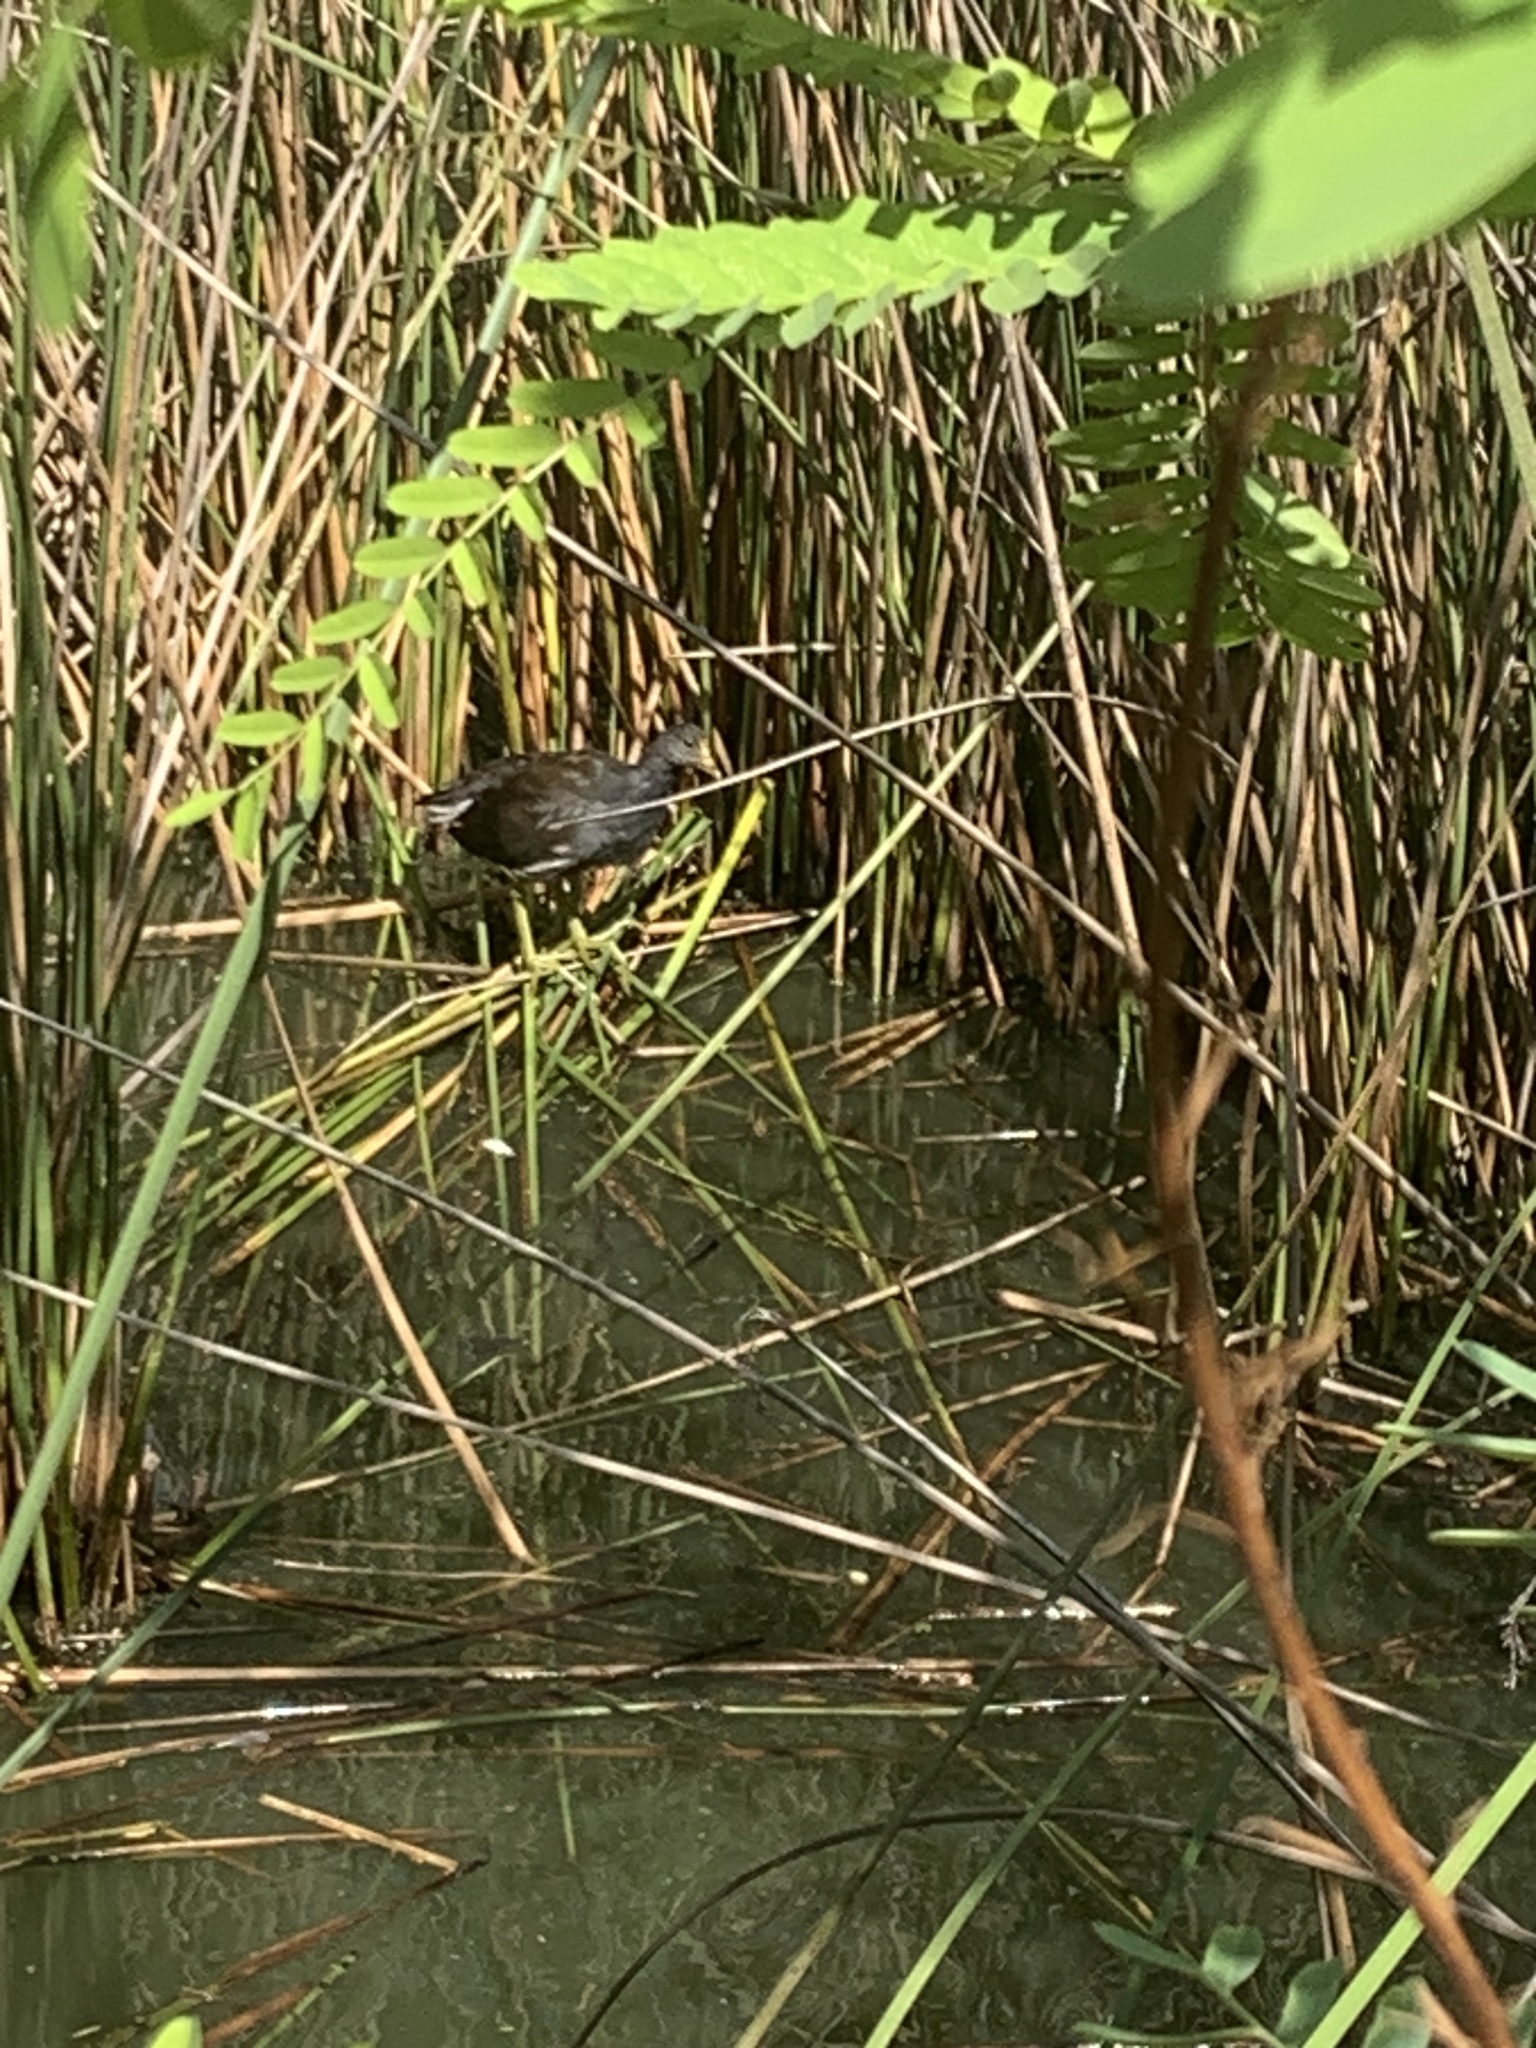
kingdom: Animalia
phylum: Chordata
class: Aves
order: Gruiformes
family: Rallidae
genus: Gallinula
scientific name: Gallinula chloropus
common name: Common moorhen
